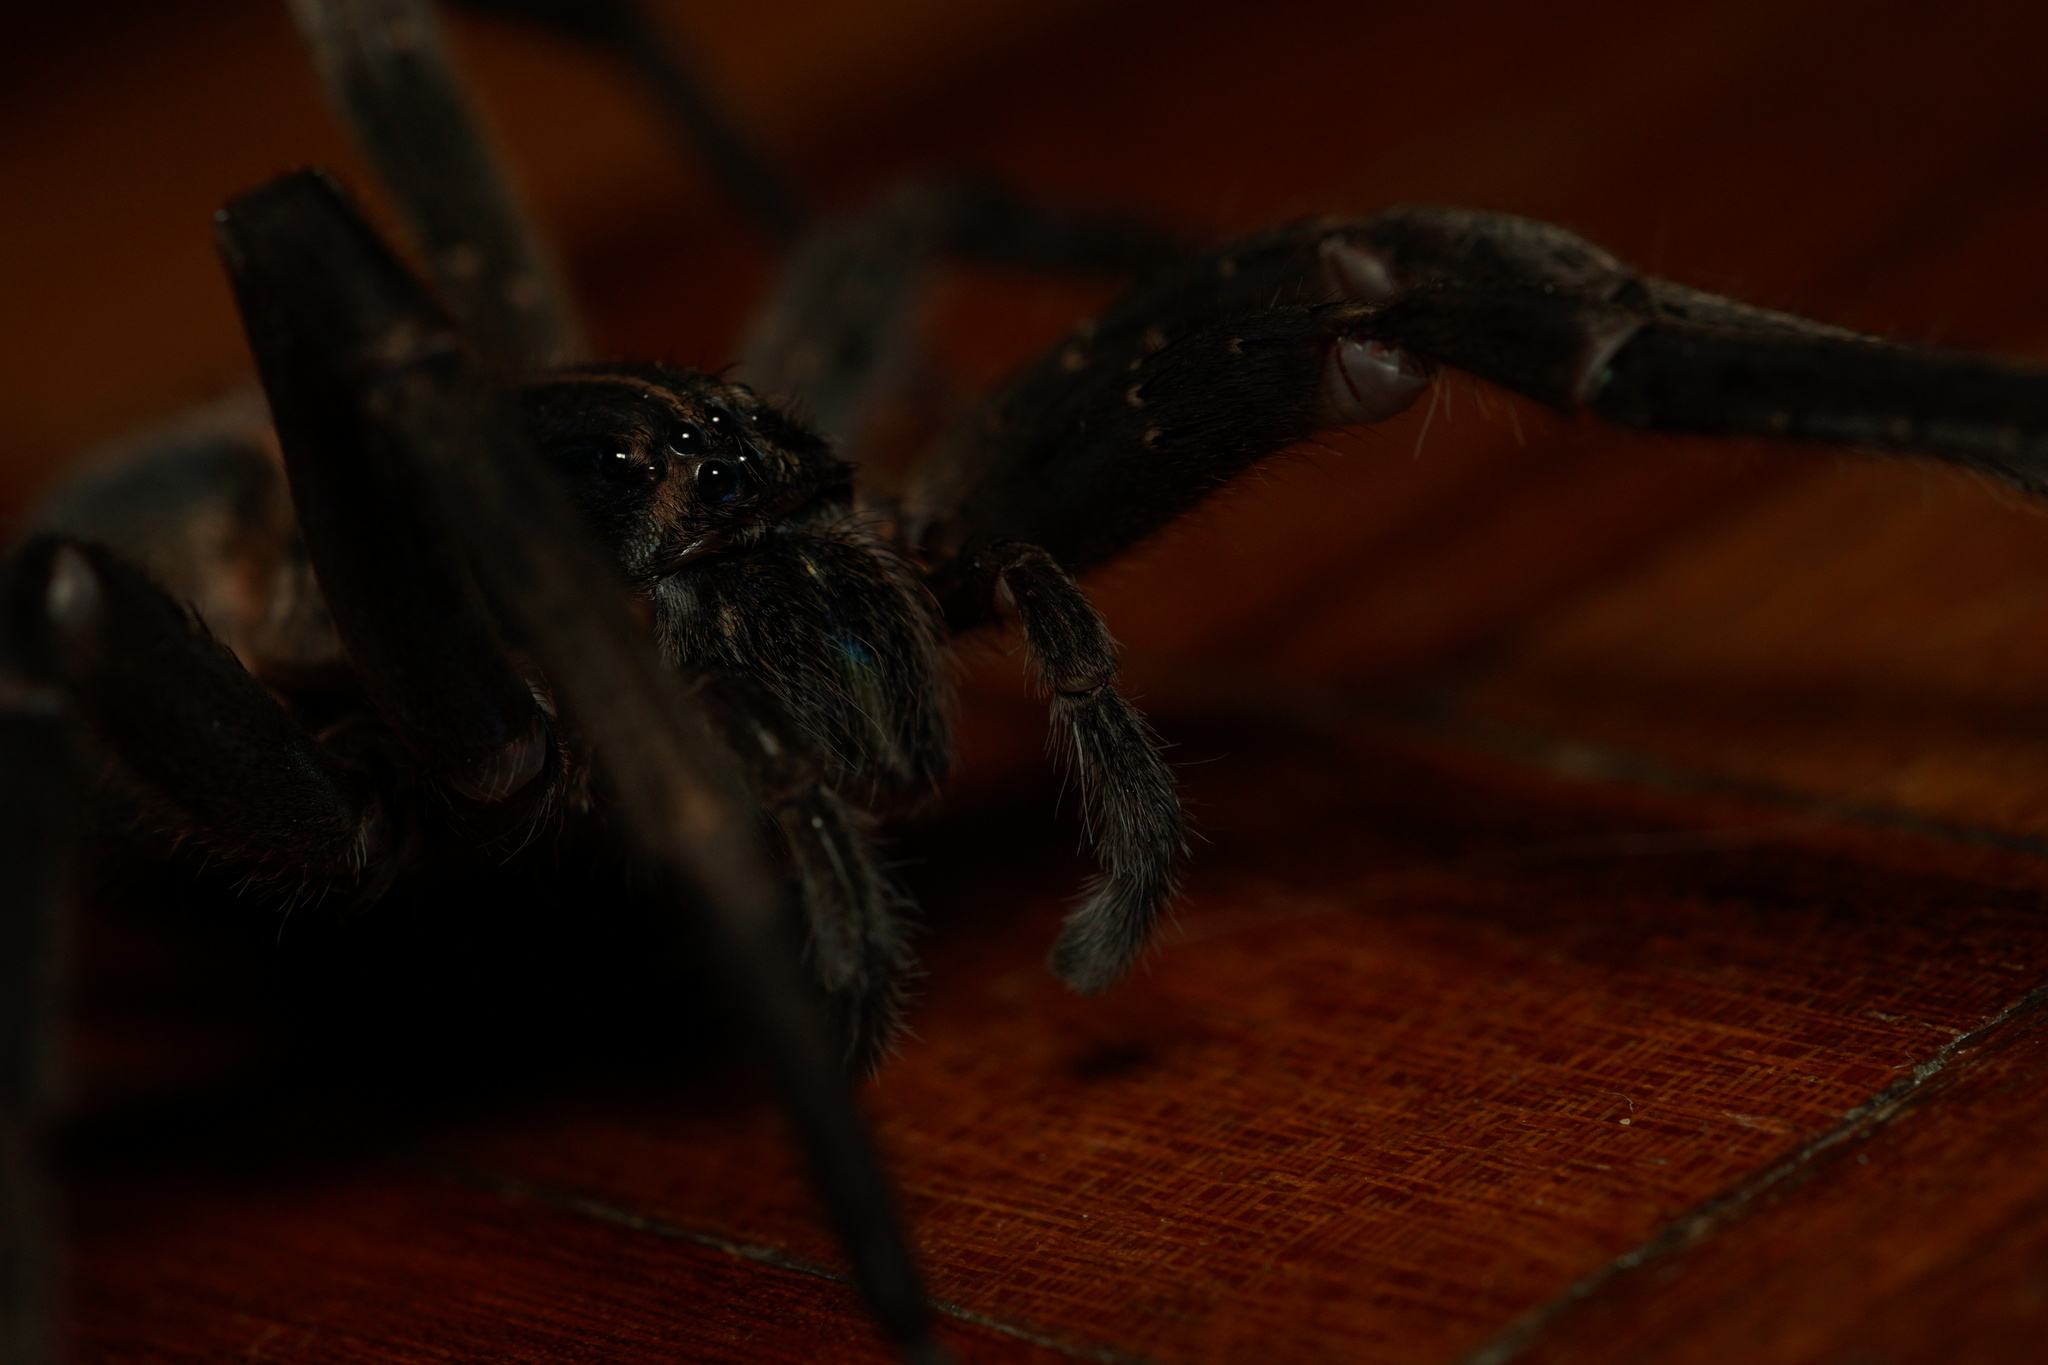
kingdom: Animalia
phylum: Arthropoda
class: Arachnida
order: Araneae
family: Ctenidae
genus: Guasuctenus
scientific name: Guasuctenus vittatissimus
